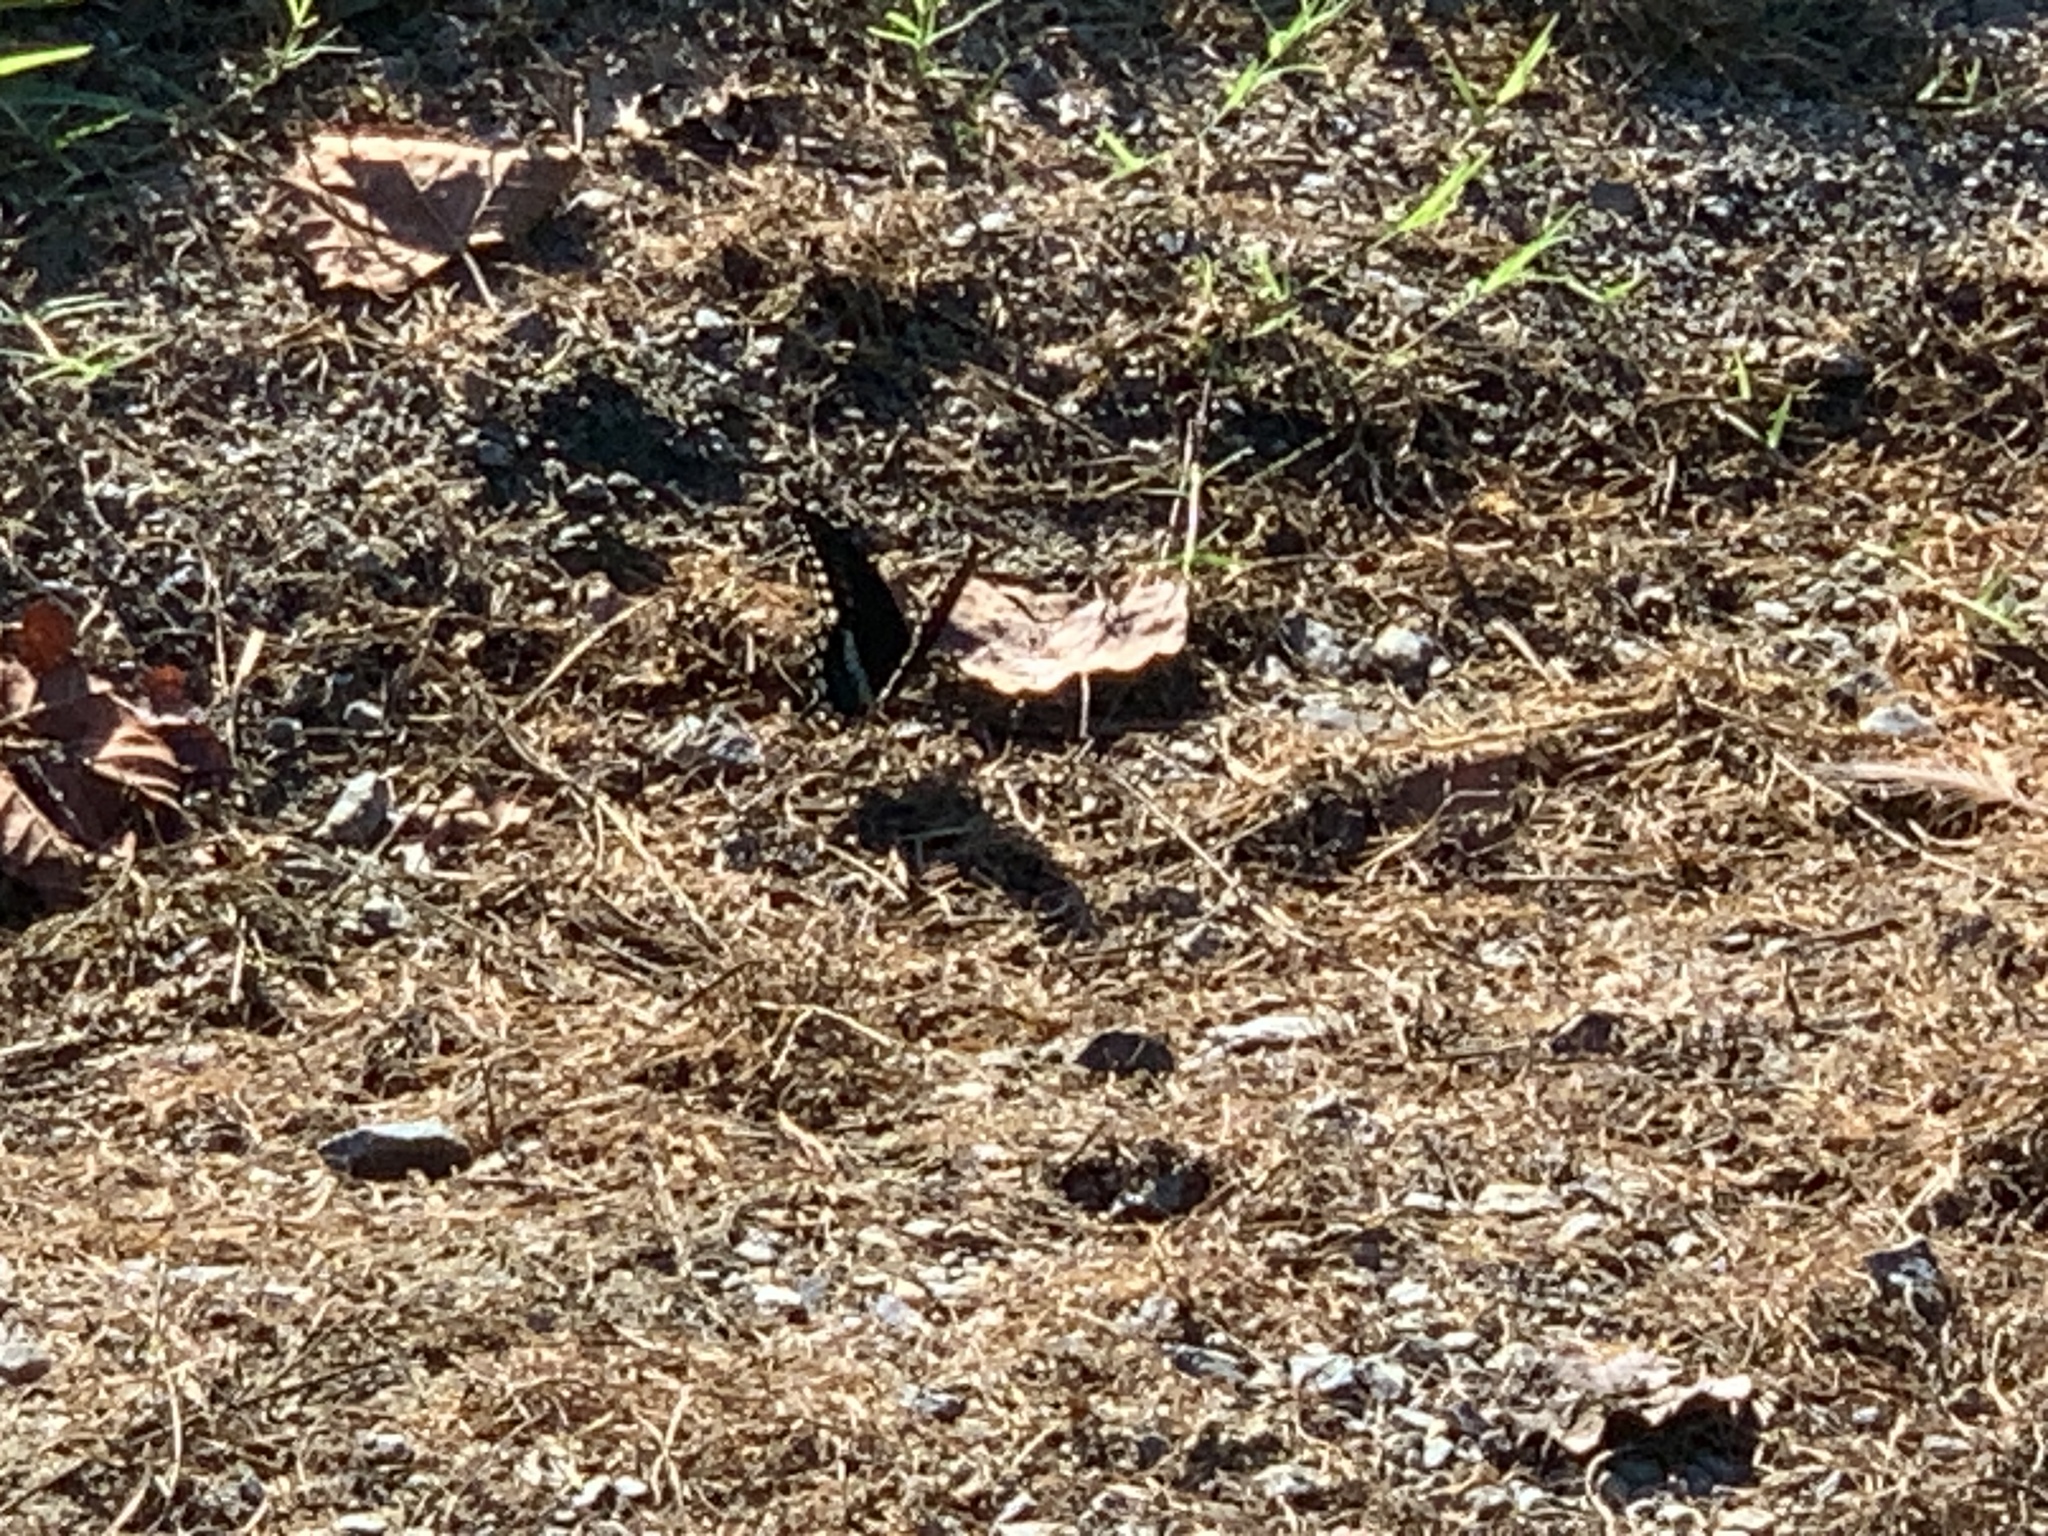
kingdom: Animalia
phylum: Arthropoda
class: Insecta
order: Lepidoptera
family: Papilionidae
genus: Papilio
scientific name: Papilio troilus
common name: Spicebush swallowtail
